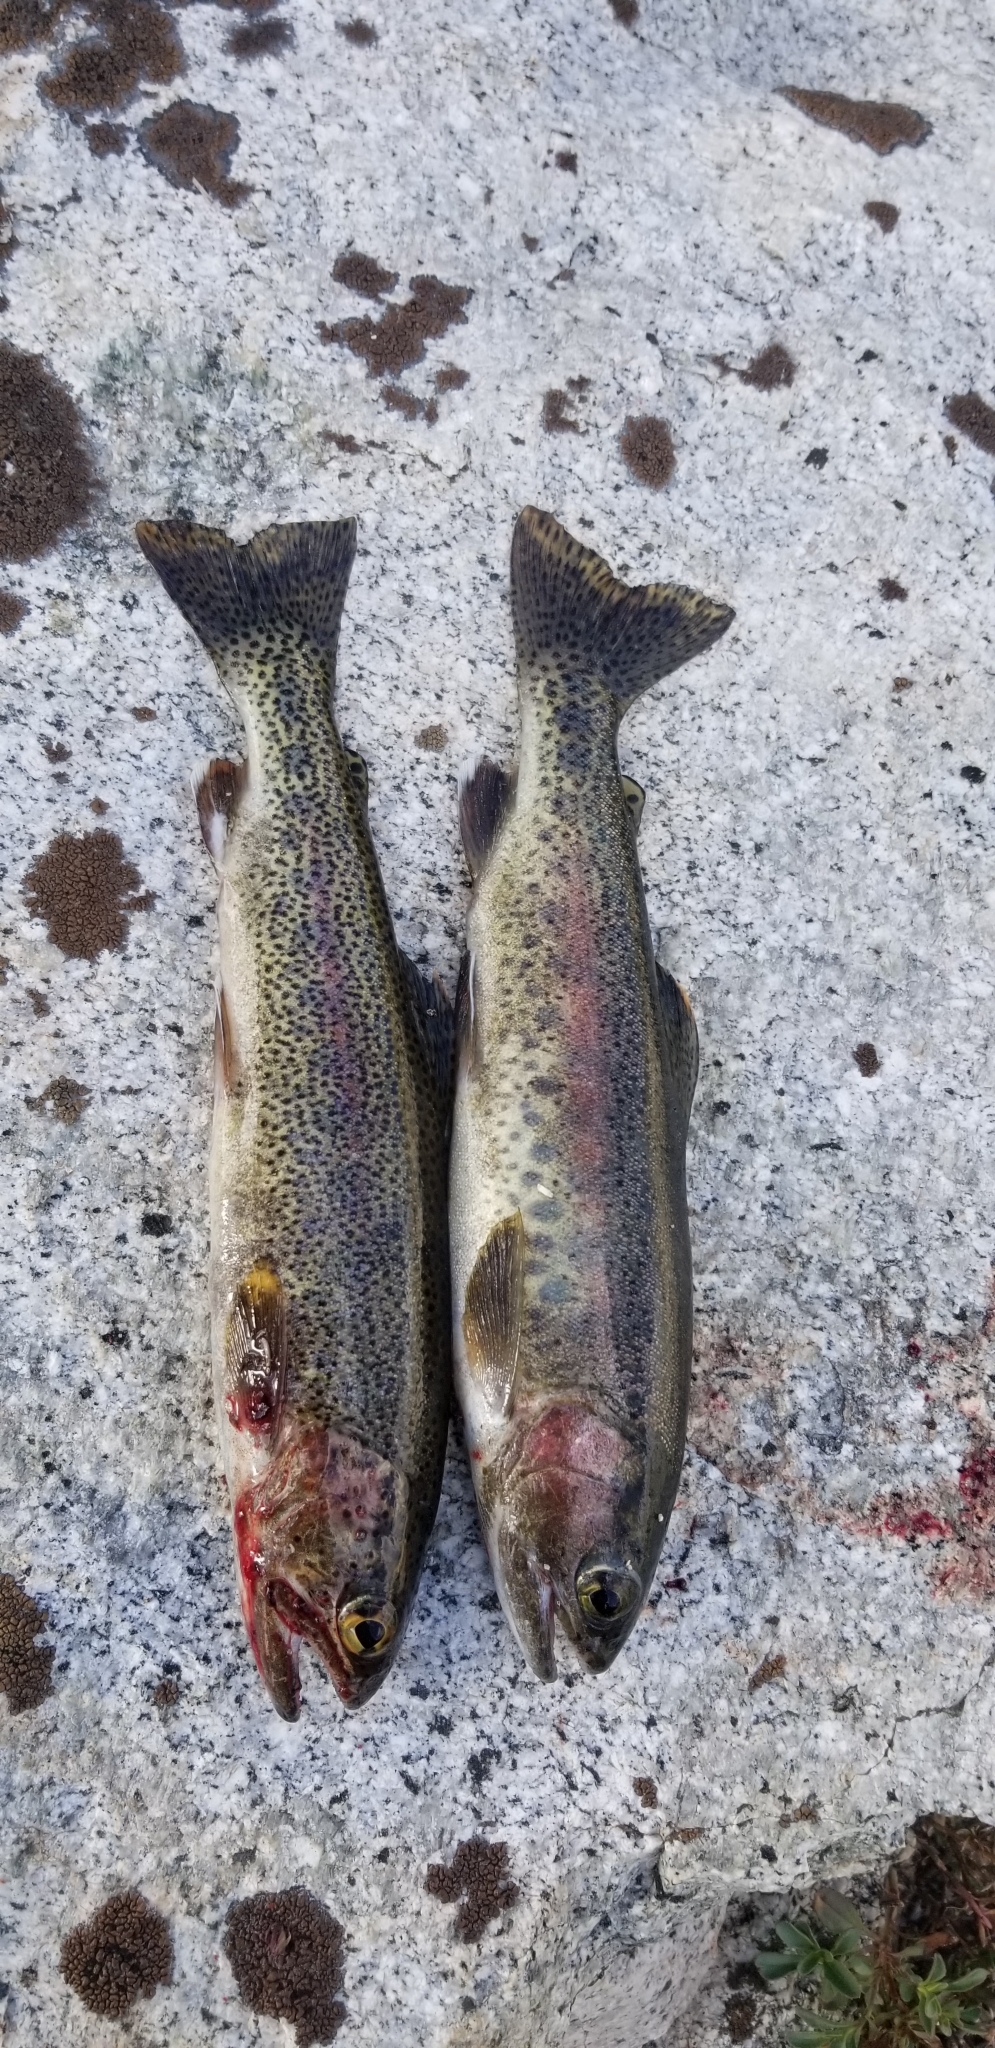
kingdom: Animalia
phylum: Chordata
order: Salmoniformes
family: Salmonidae
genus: Oncorhynchus
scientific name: Oncorhynchus mykiss
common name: Rainbow trout
